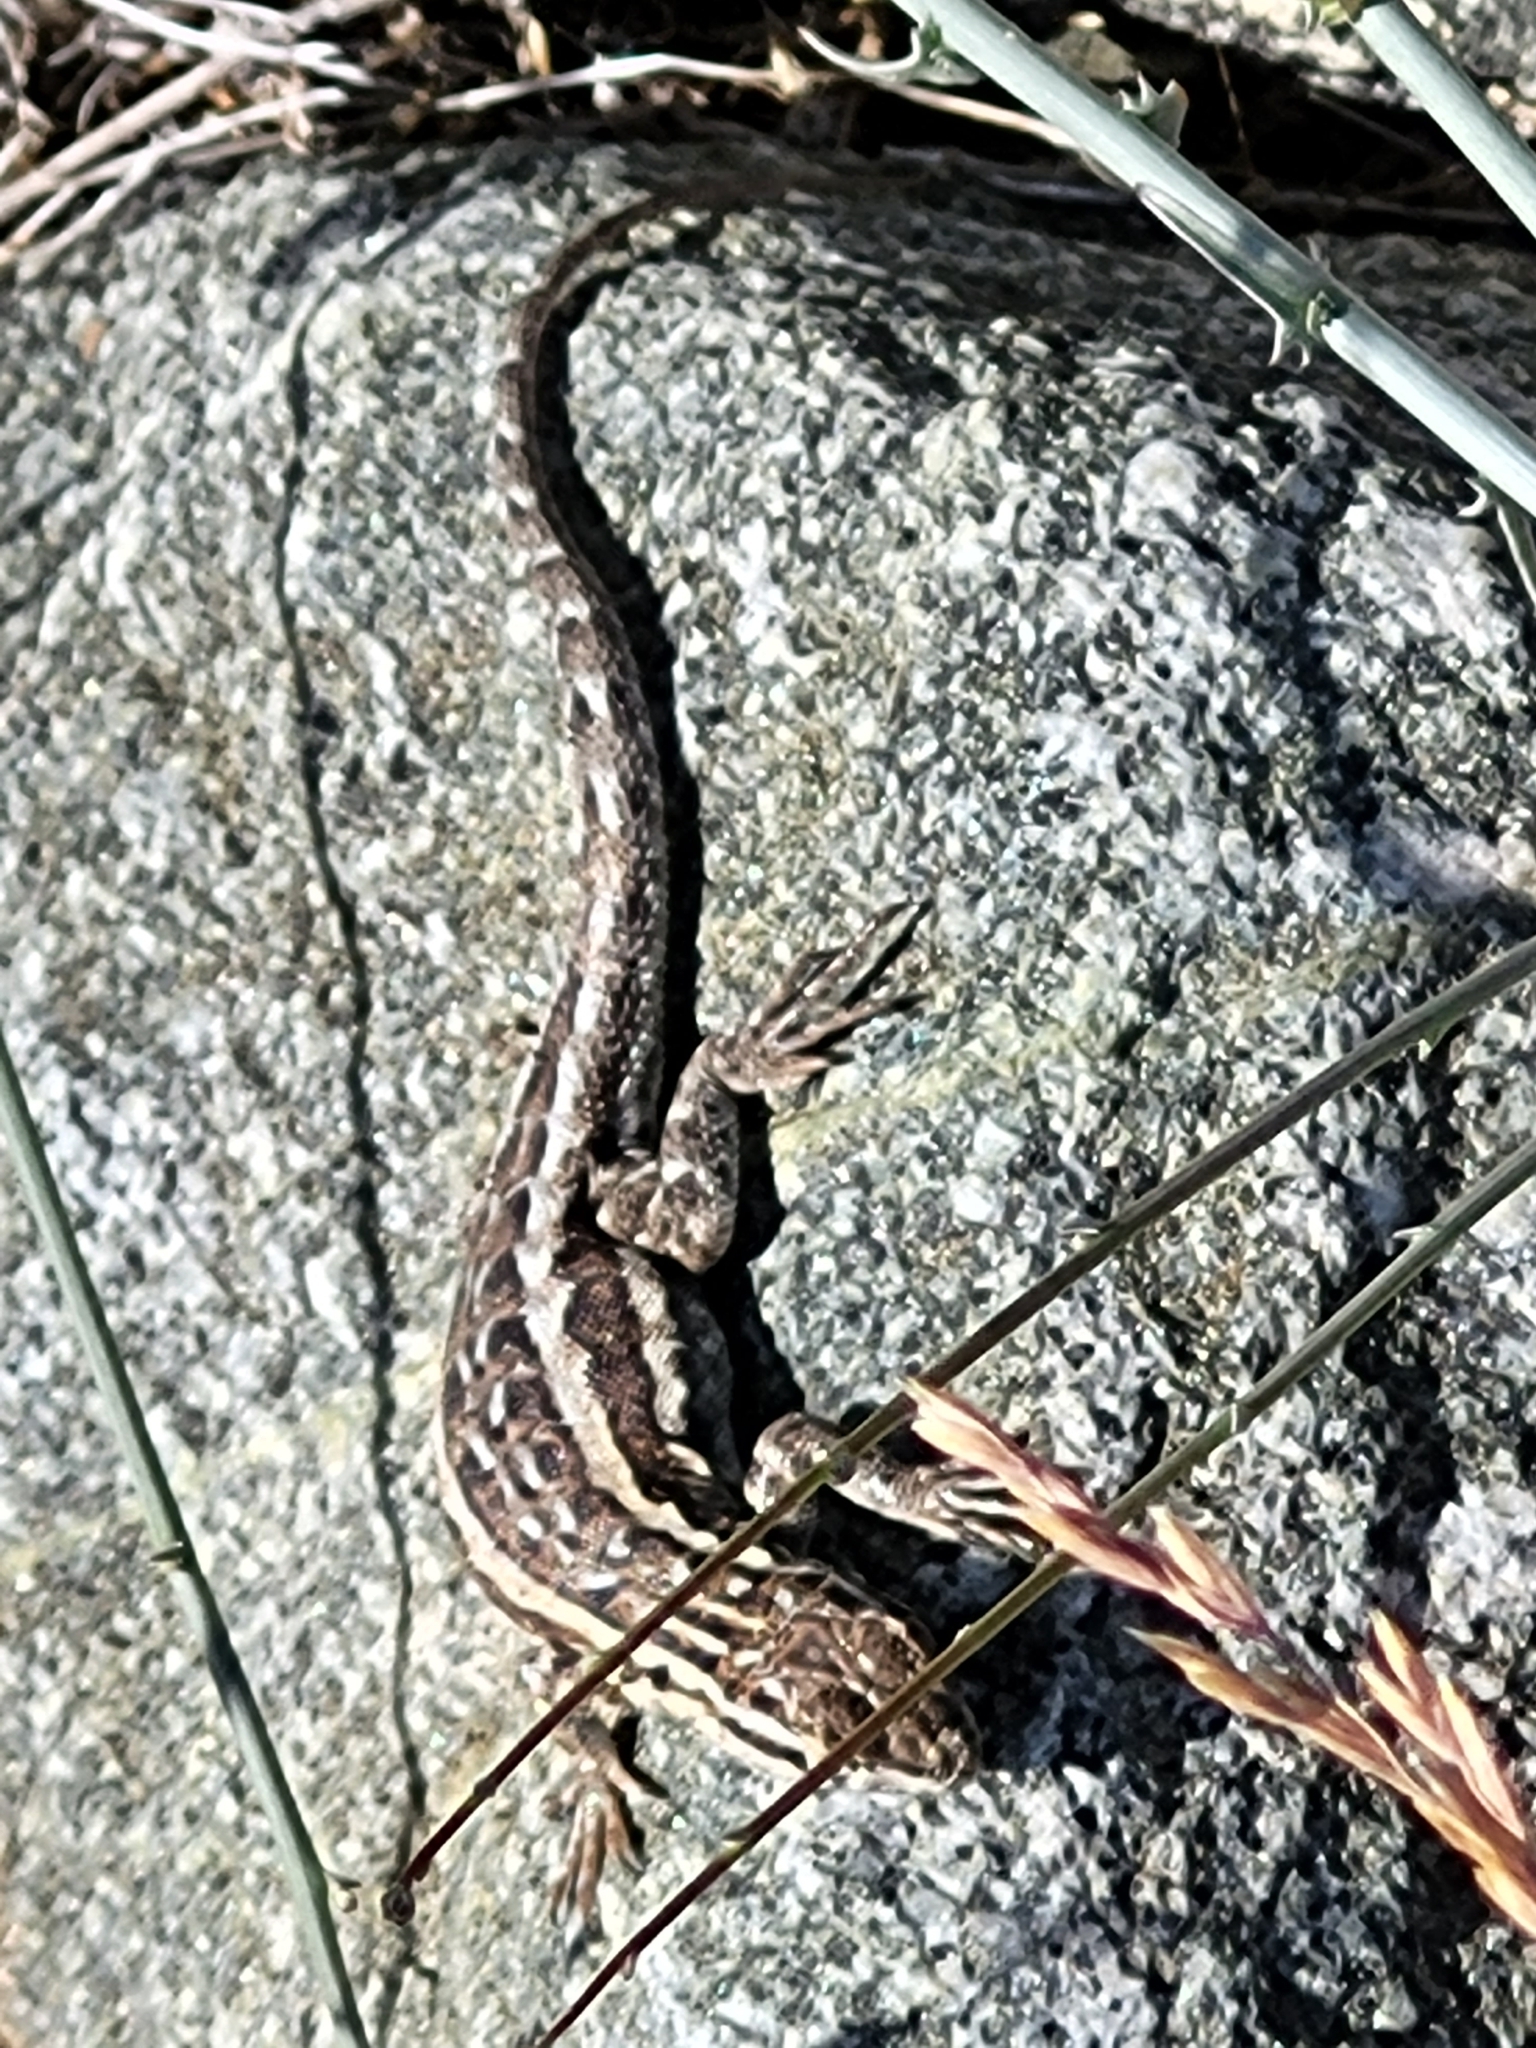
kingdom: Animalia
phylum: Chordata
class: Squamata
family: Phrynosomatidae
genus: Uta
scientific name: Uta stansburiana
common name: Side-blotched lizard
